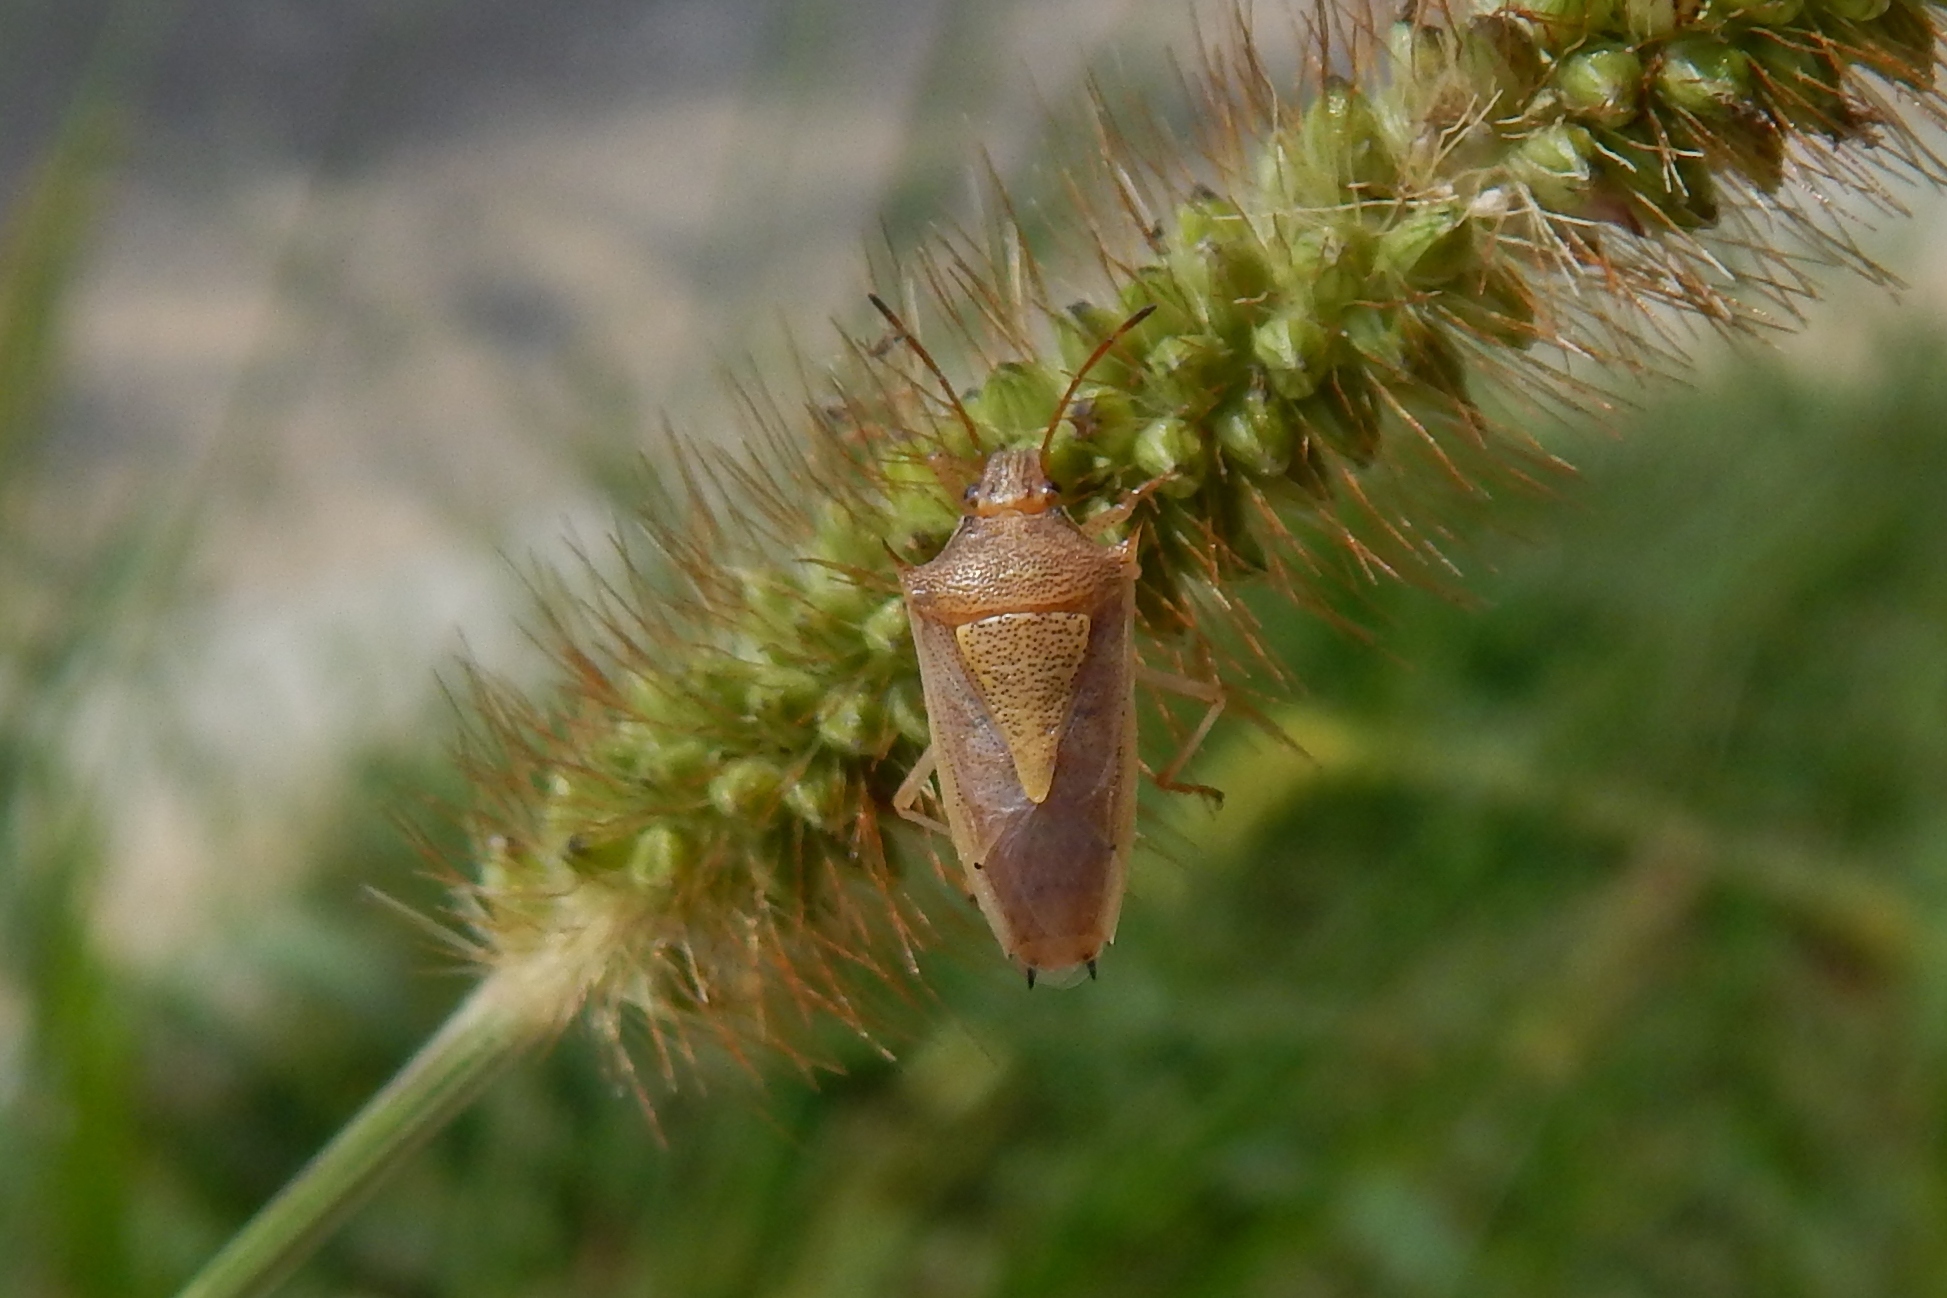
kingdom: Animalia
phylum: Arthropoda
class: Insecta
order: Hemiptera
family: Pentatomidae
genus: Oebalus
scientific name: Oebalus pugnax
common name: Rice stink bug
